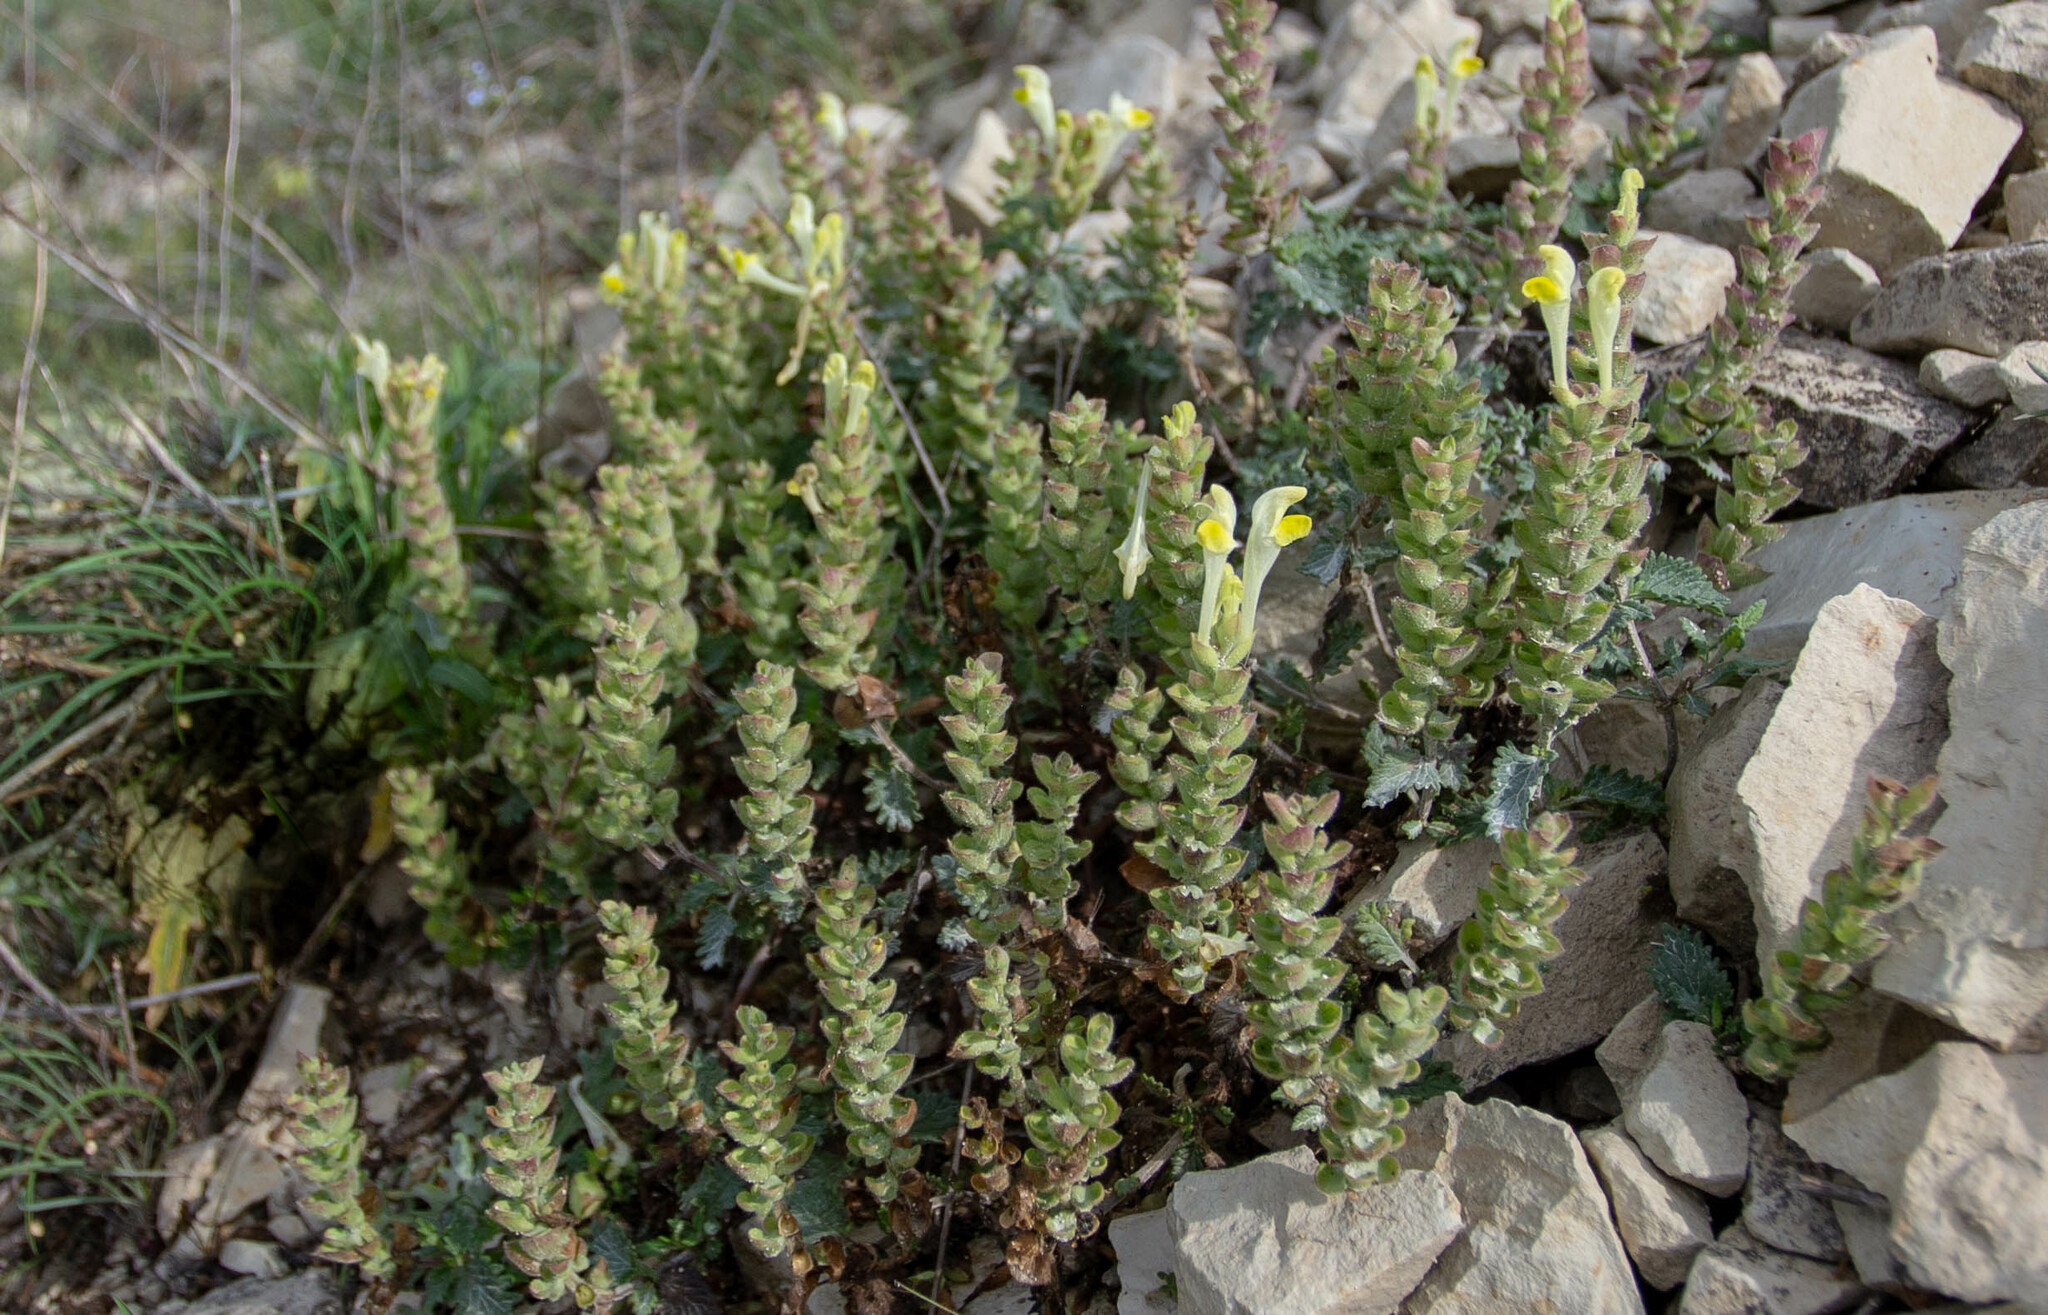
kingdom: Plantae
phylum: Tracheophyta
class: Magnoliopsida
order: Lamiales
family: Lamiaceae
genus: Scutellaria
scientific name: Scutellaria orientalis
